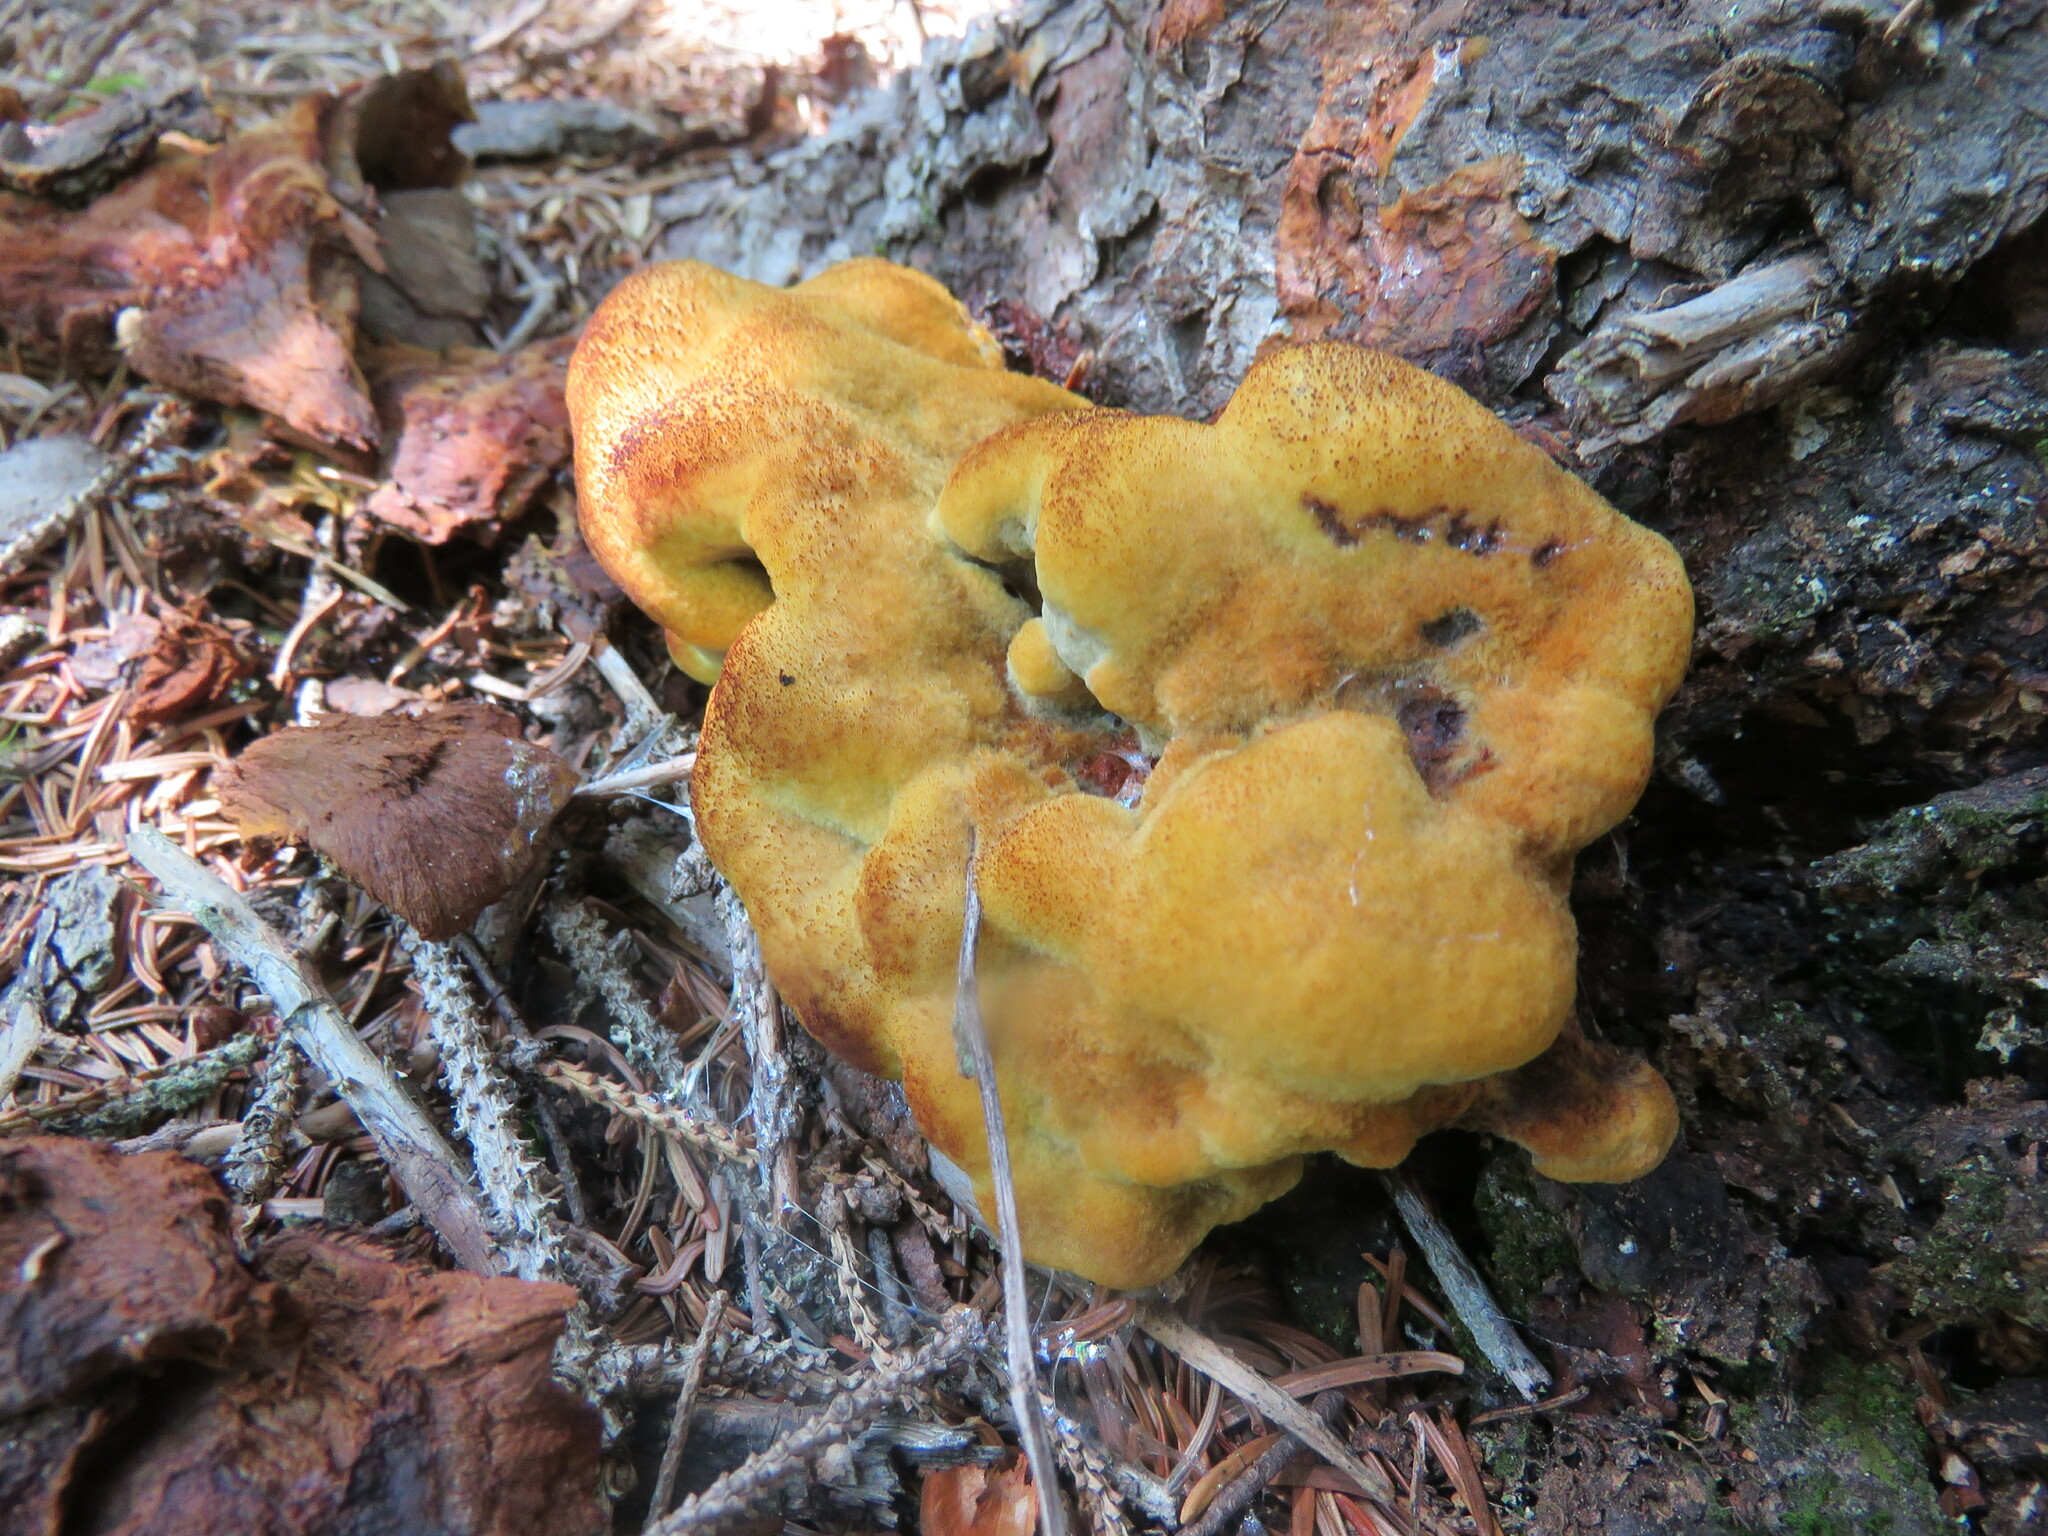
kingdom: Fungi
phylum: Basidiomycota
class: Agaricomycetes
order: Polyporales
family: Laetiporaceae
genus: Phaeolus
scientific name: Phaeolus schweinitzii
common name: Dyer's mazegill
